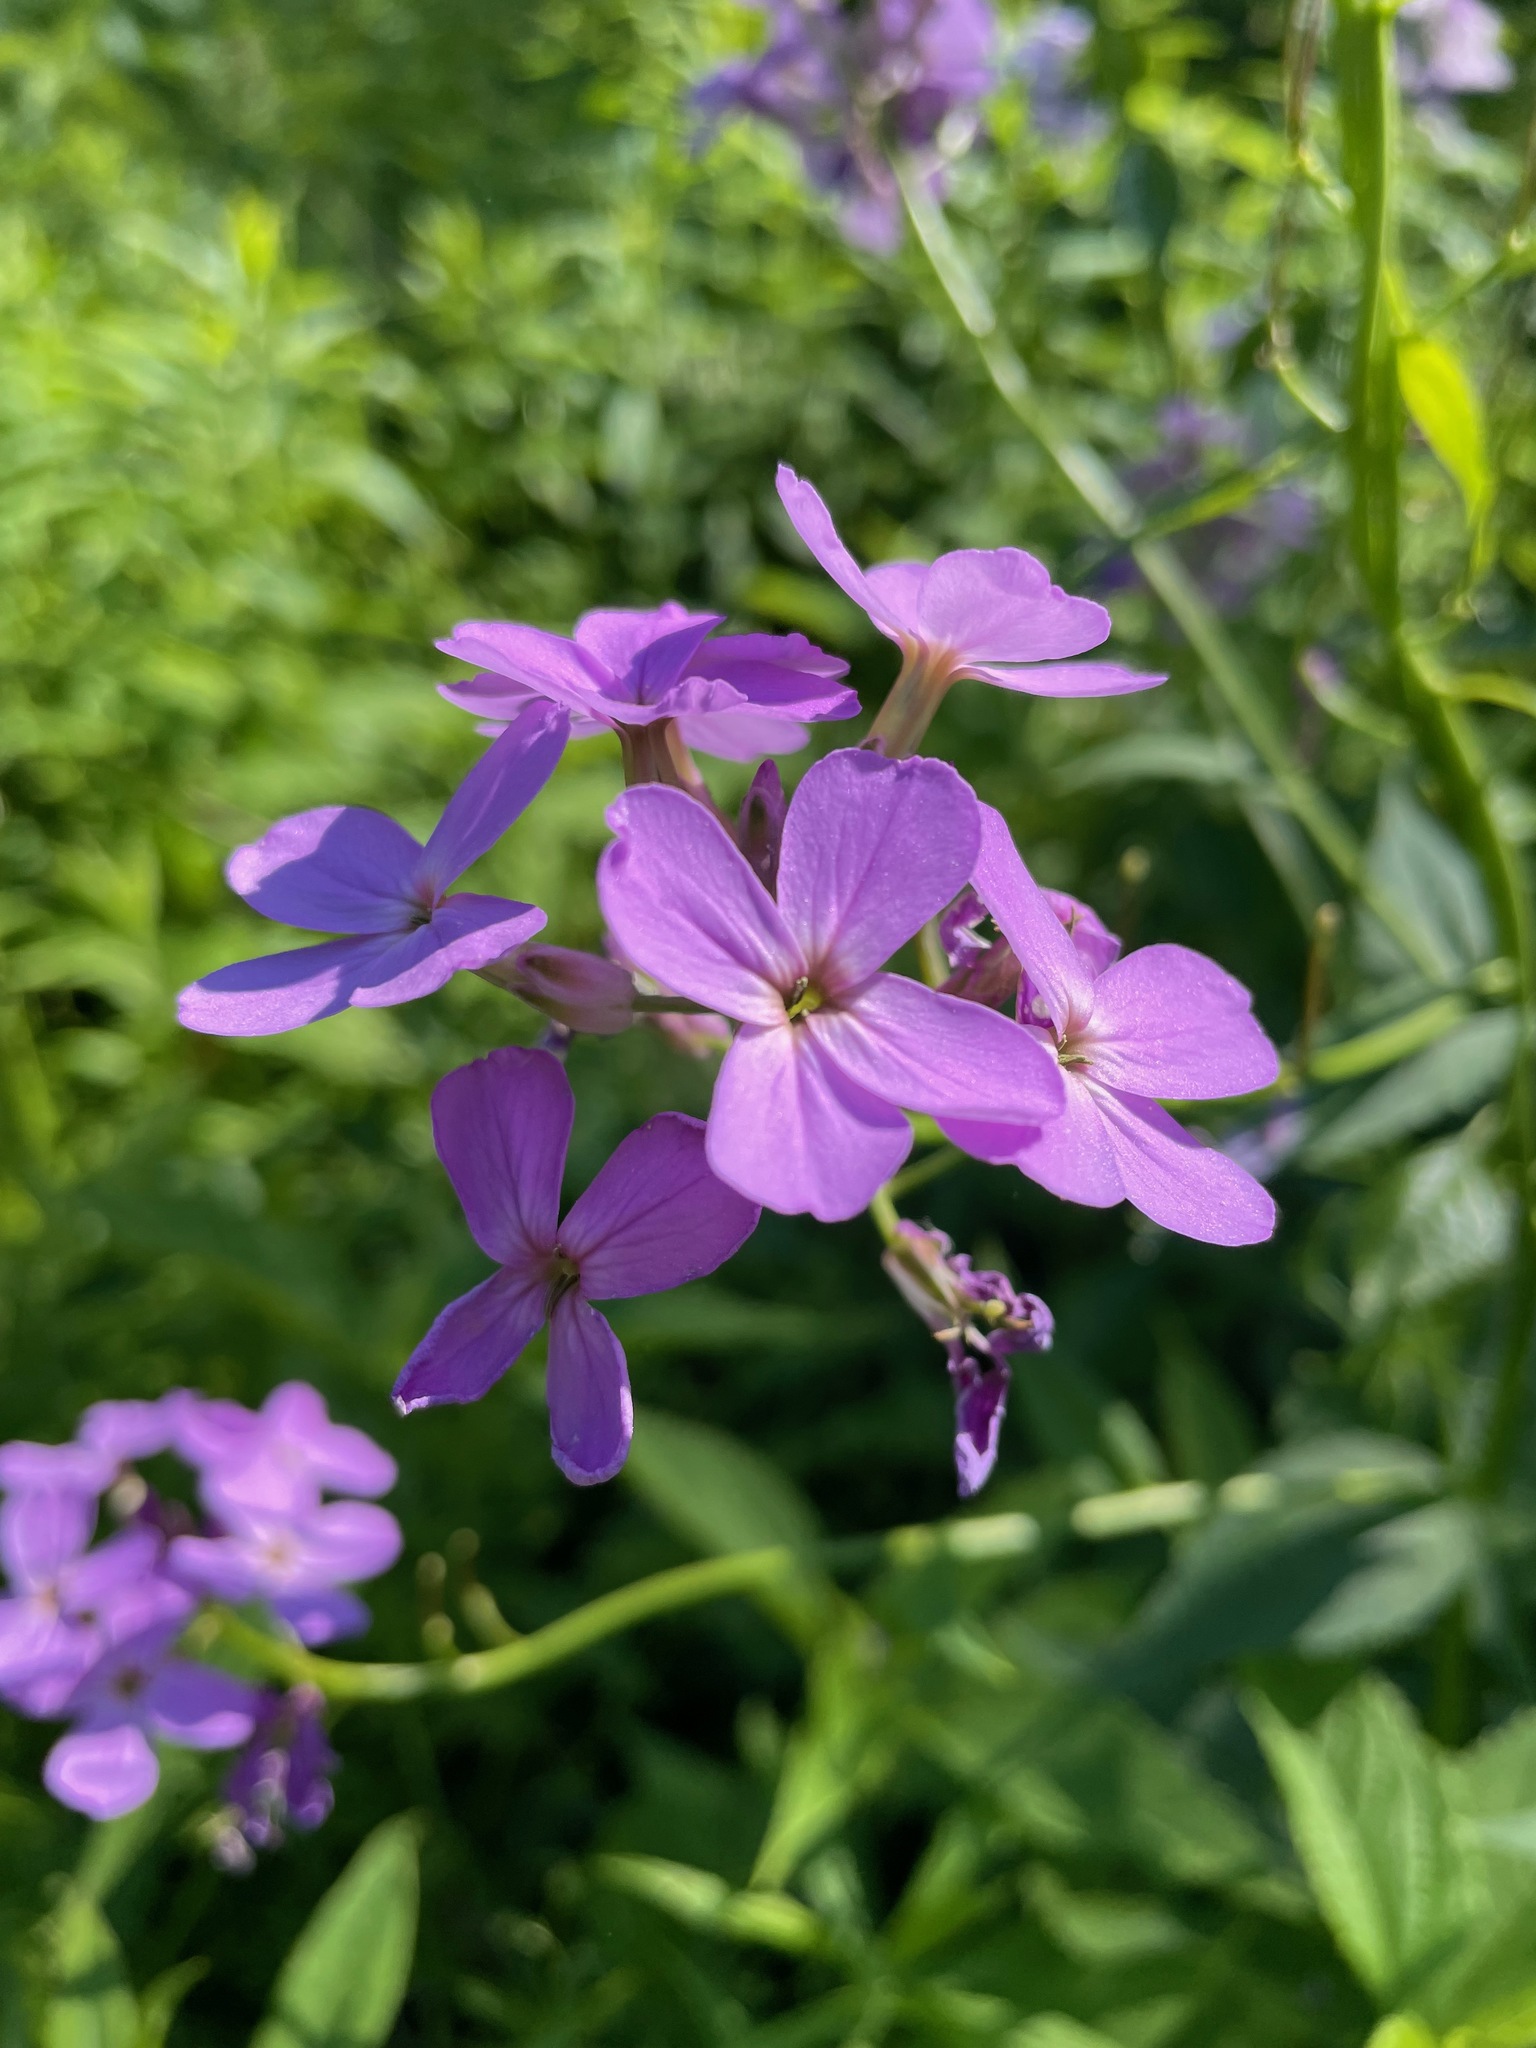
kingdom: Plantae
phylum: Tracheophyta
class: Magnoliopsida
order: Brassicales
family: Brassicaceae
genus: Hesperis
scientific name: Hesperis matronalis
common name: Dame's-violet
